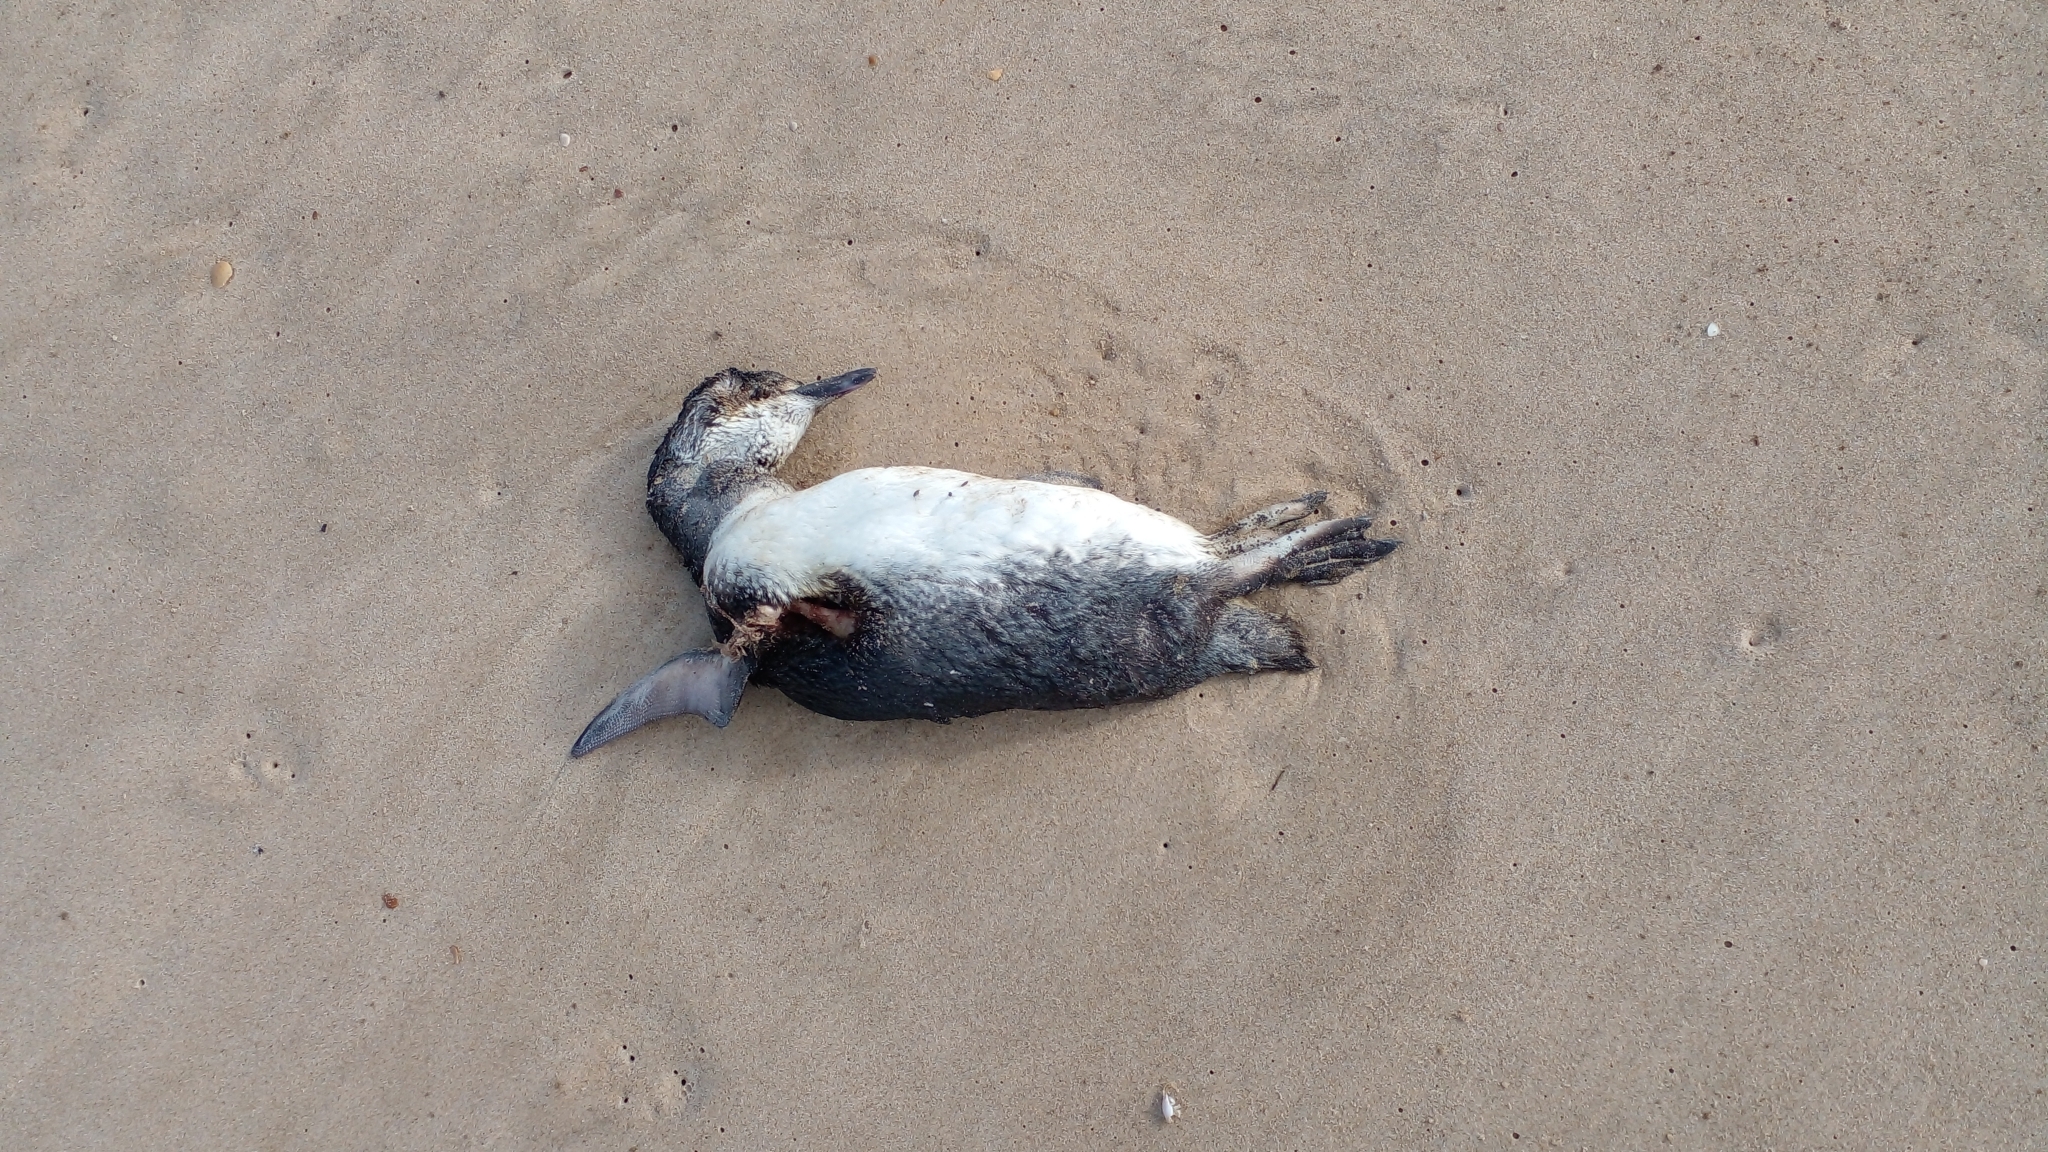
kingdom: Animalia
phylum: Chordata
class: Aves
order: Sphenisciformes
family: Spheniscidae
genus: Spheniscus
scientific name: Spheniscus magellanicus
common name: Magellanic penguin
